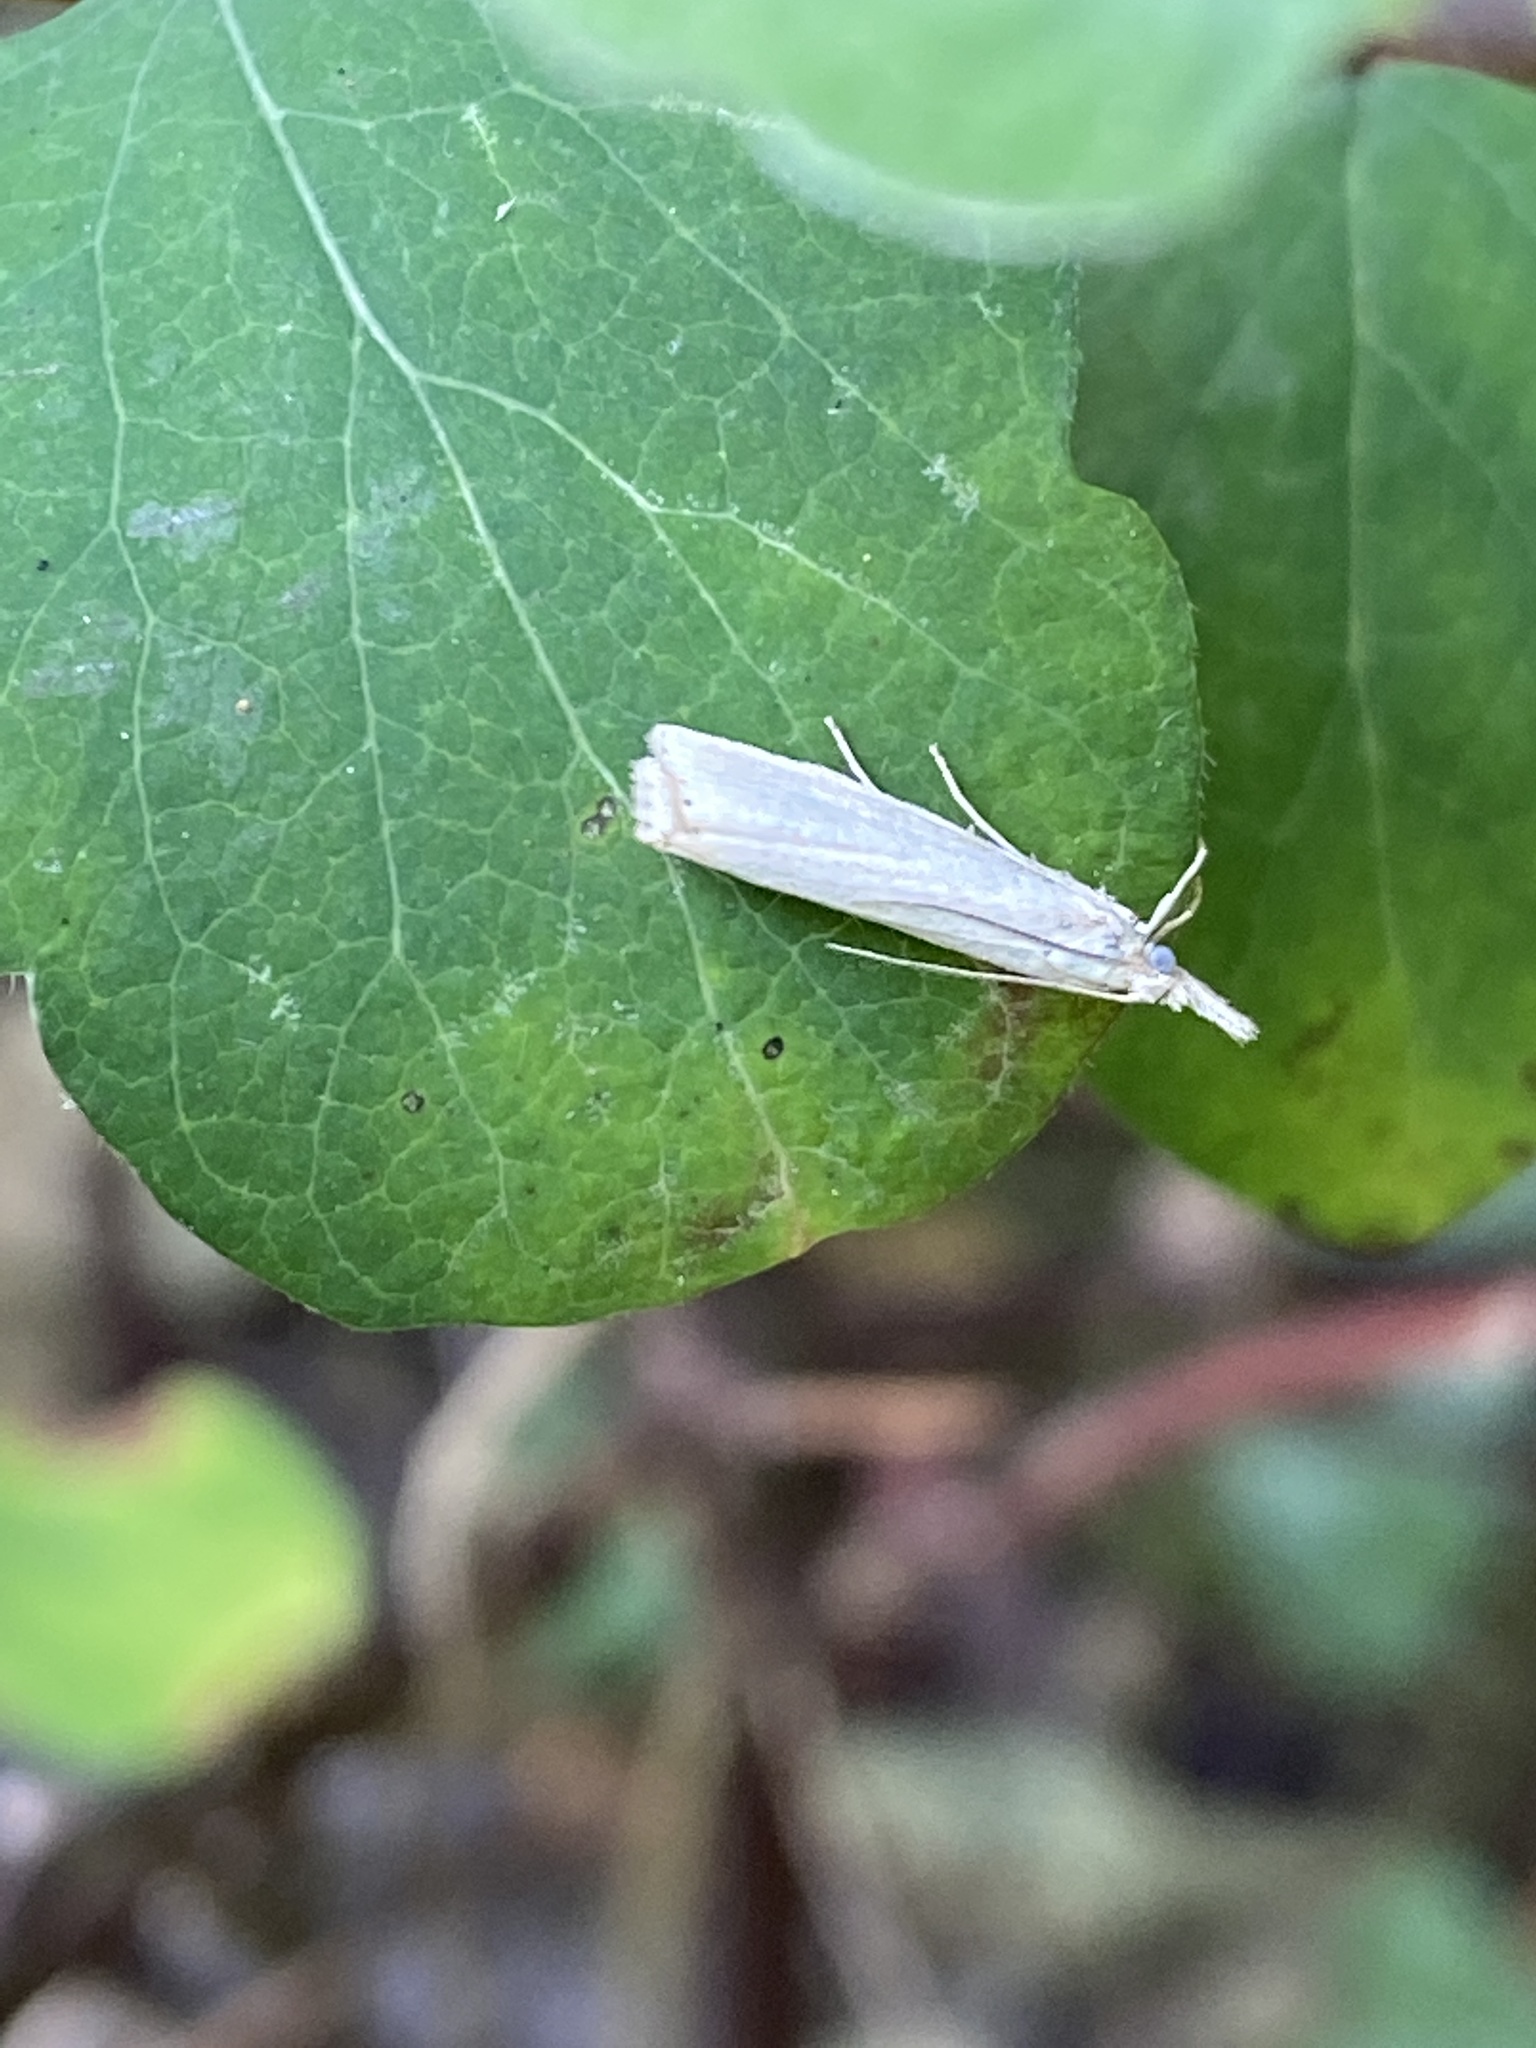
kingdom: Animalia
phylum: Arthropoda
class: Insecta
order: Lepidoptera
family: Crambidae
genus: Crambus
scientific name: Crambus perlellus
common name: Yellow satin veneer
